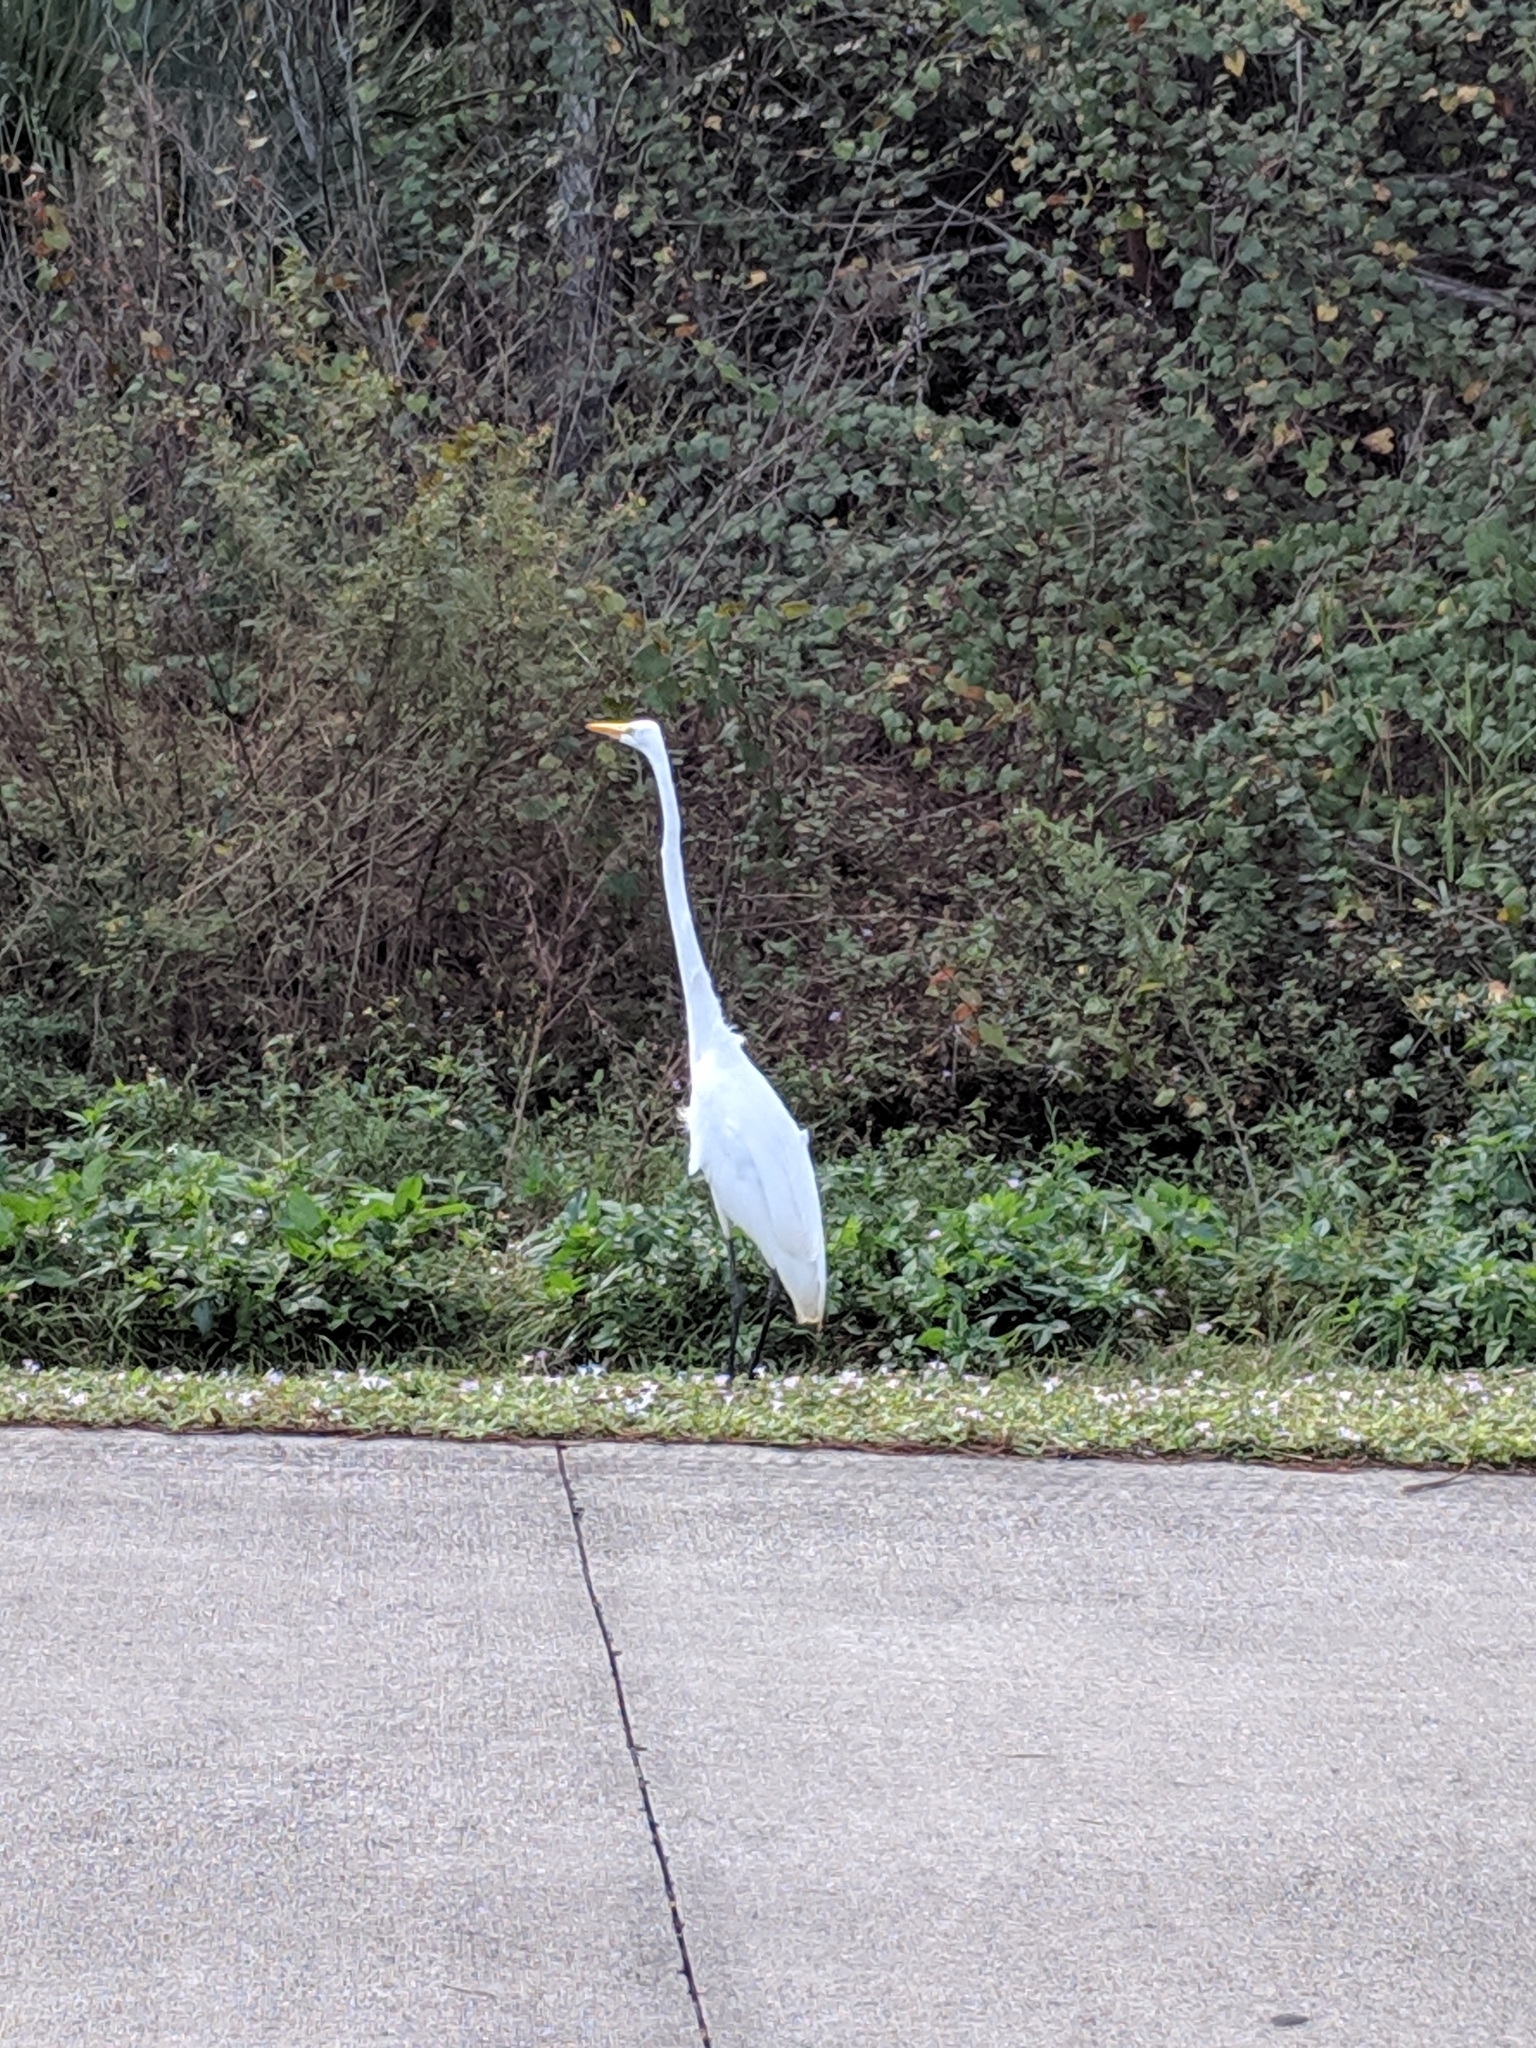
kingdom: Animalia
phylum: Chordata
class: Aves
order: Pelecaniformes
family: Ardeidae
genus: Ardea
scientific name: Ardea alba
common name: Great egret
